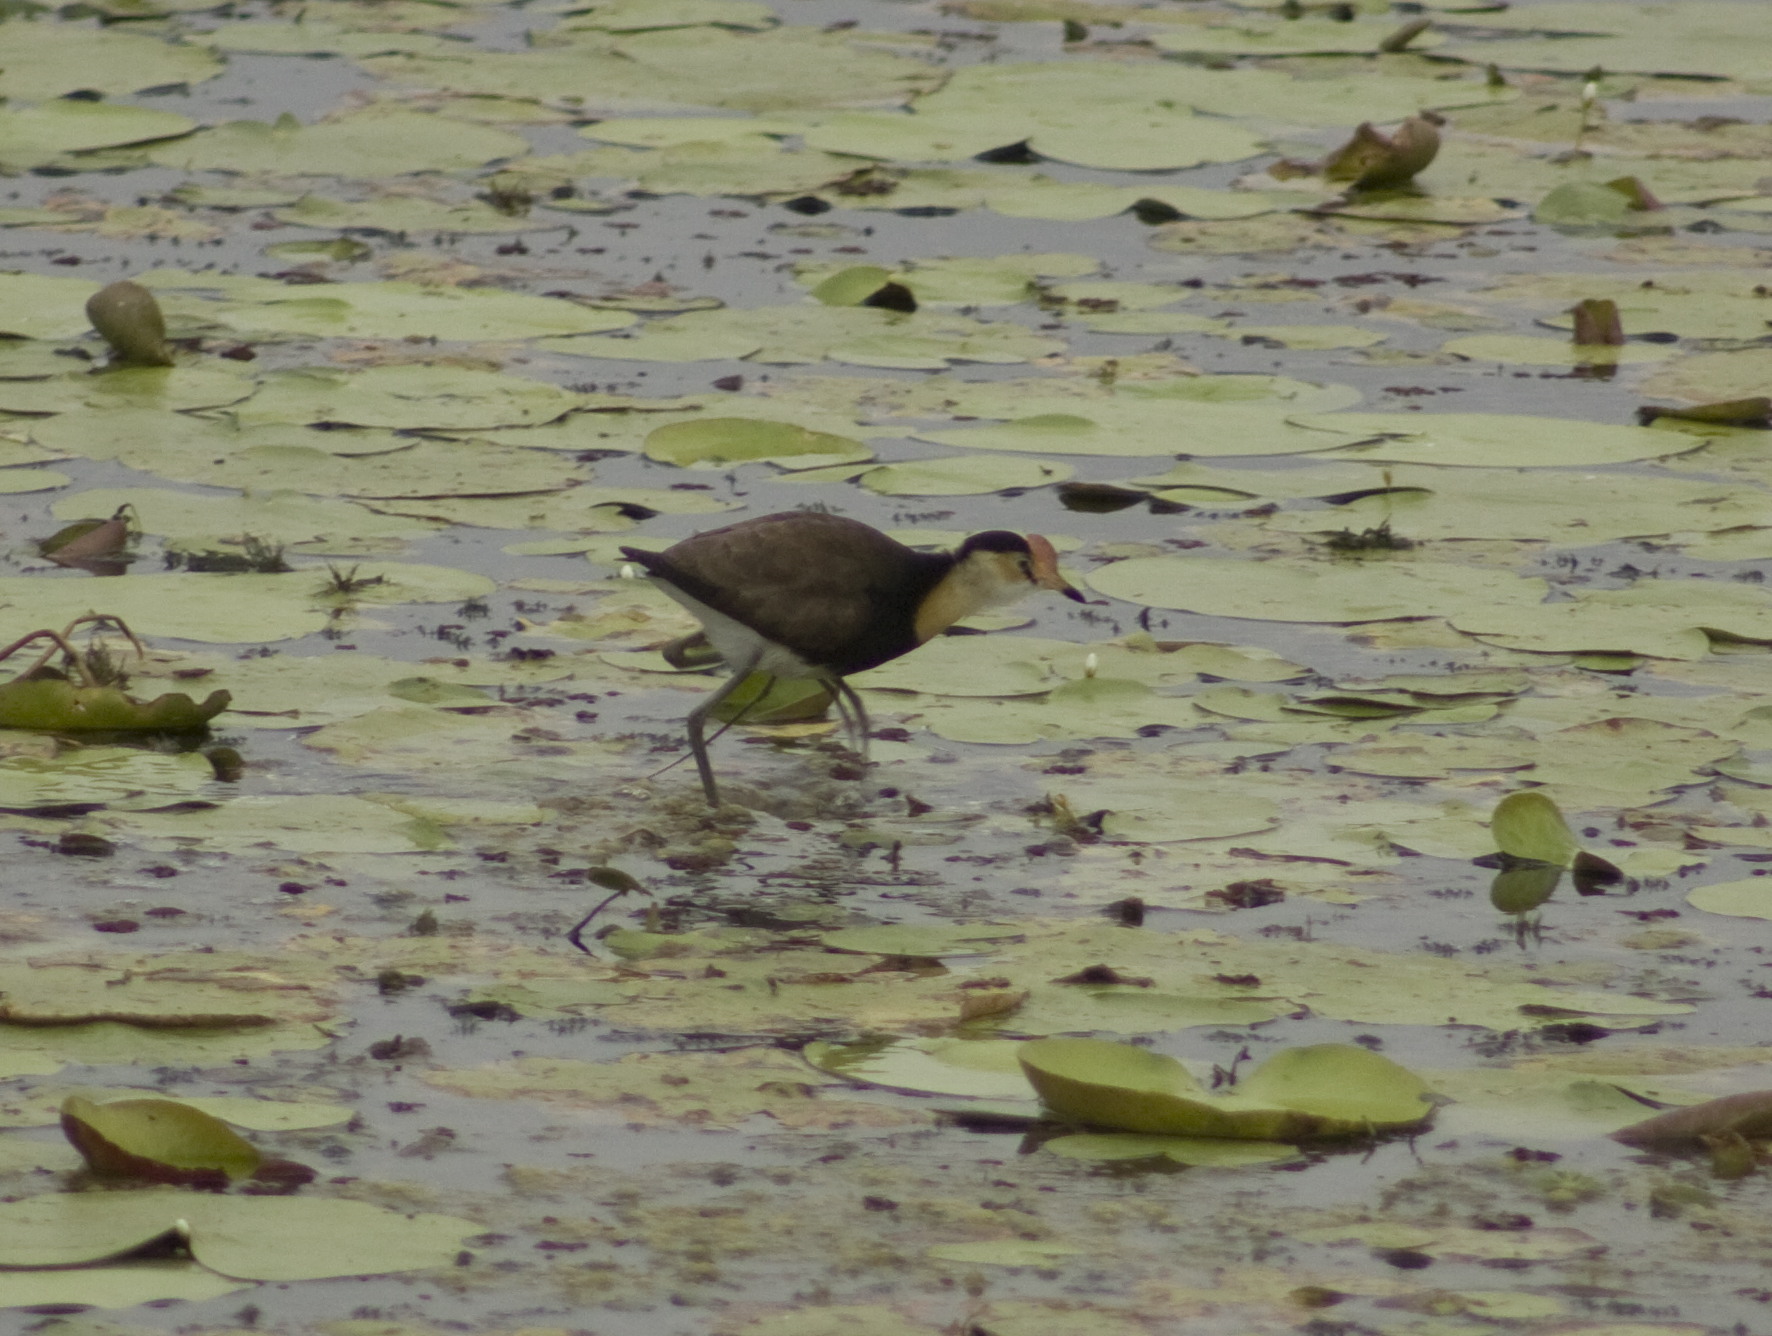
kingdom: Animalia
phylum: Chordata
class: Aves
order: Charadriiformes
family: Jacanidae
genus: Irediparra
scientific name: Irediparra gallinacea
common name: Comb-crested jacana
